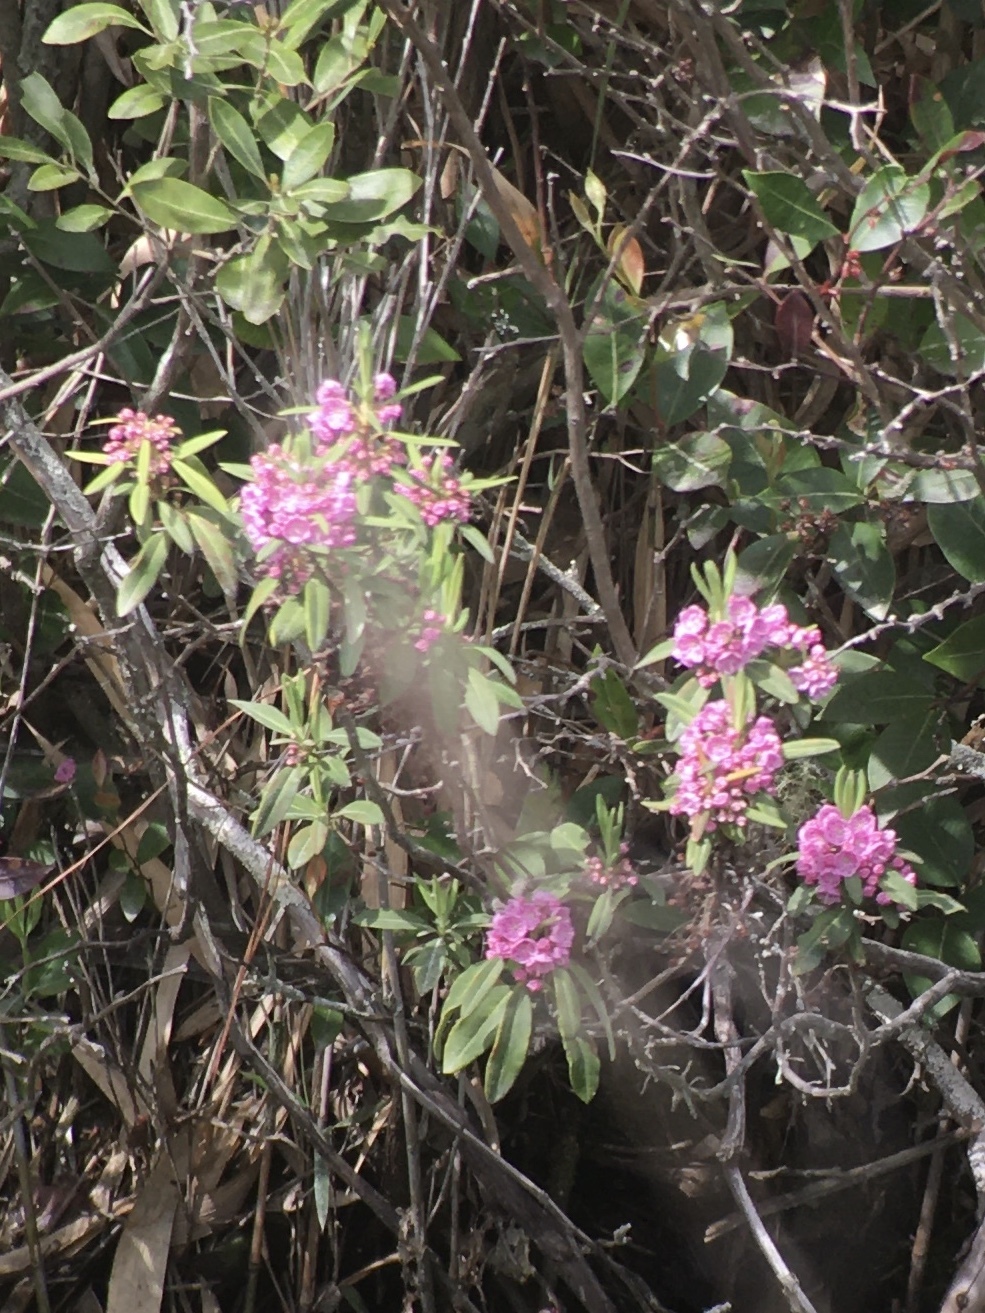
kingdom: Plantae
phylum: Tracheophyta
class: Magnoliopsida
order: Ericales
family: Ericaceae
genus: Kalmia
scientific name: Kalmia angustifolia
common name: Sheep-laurel
